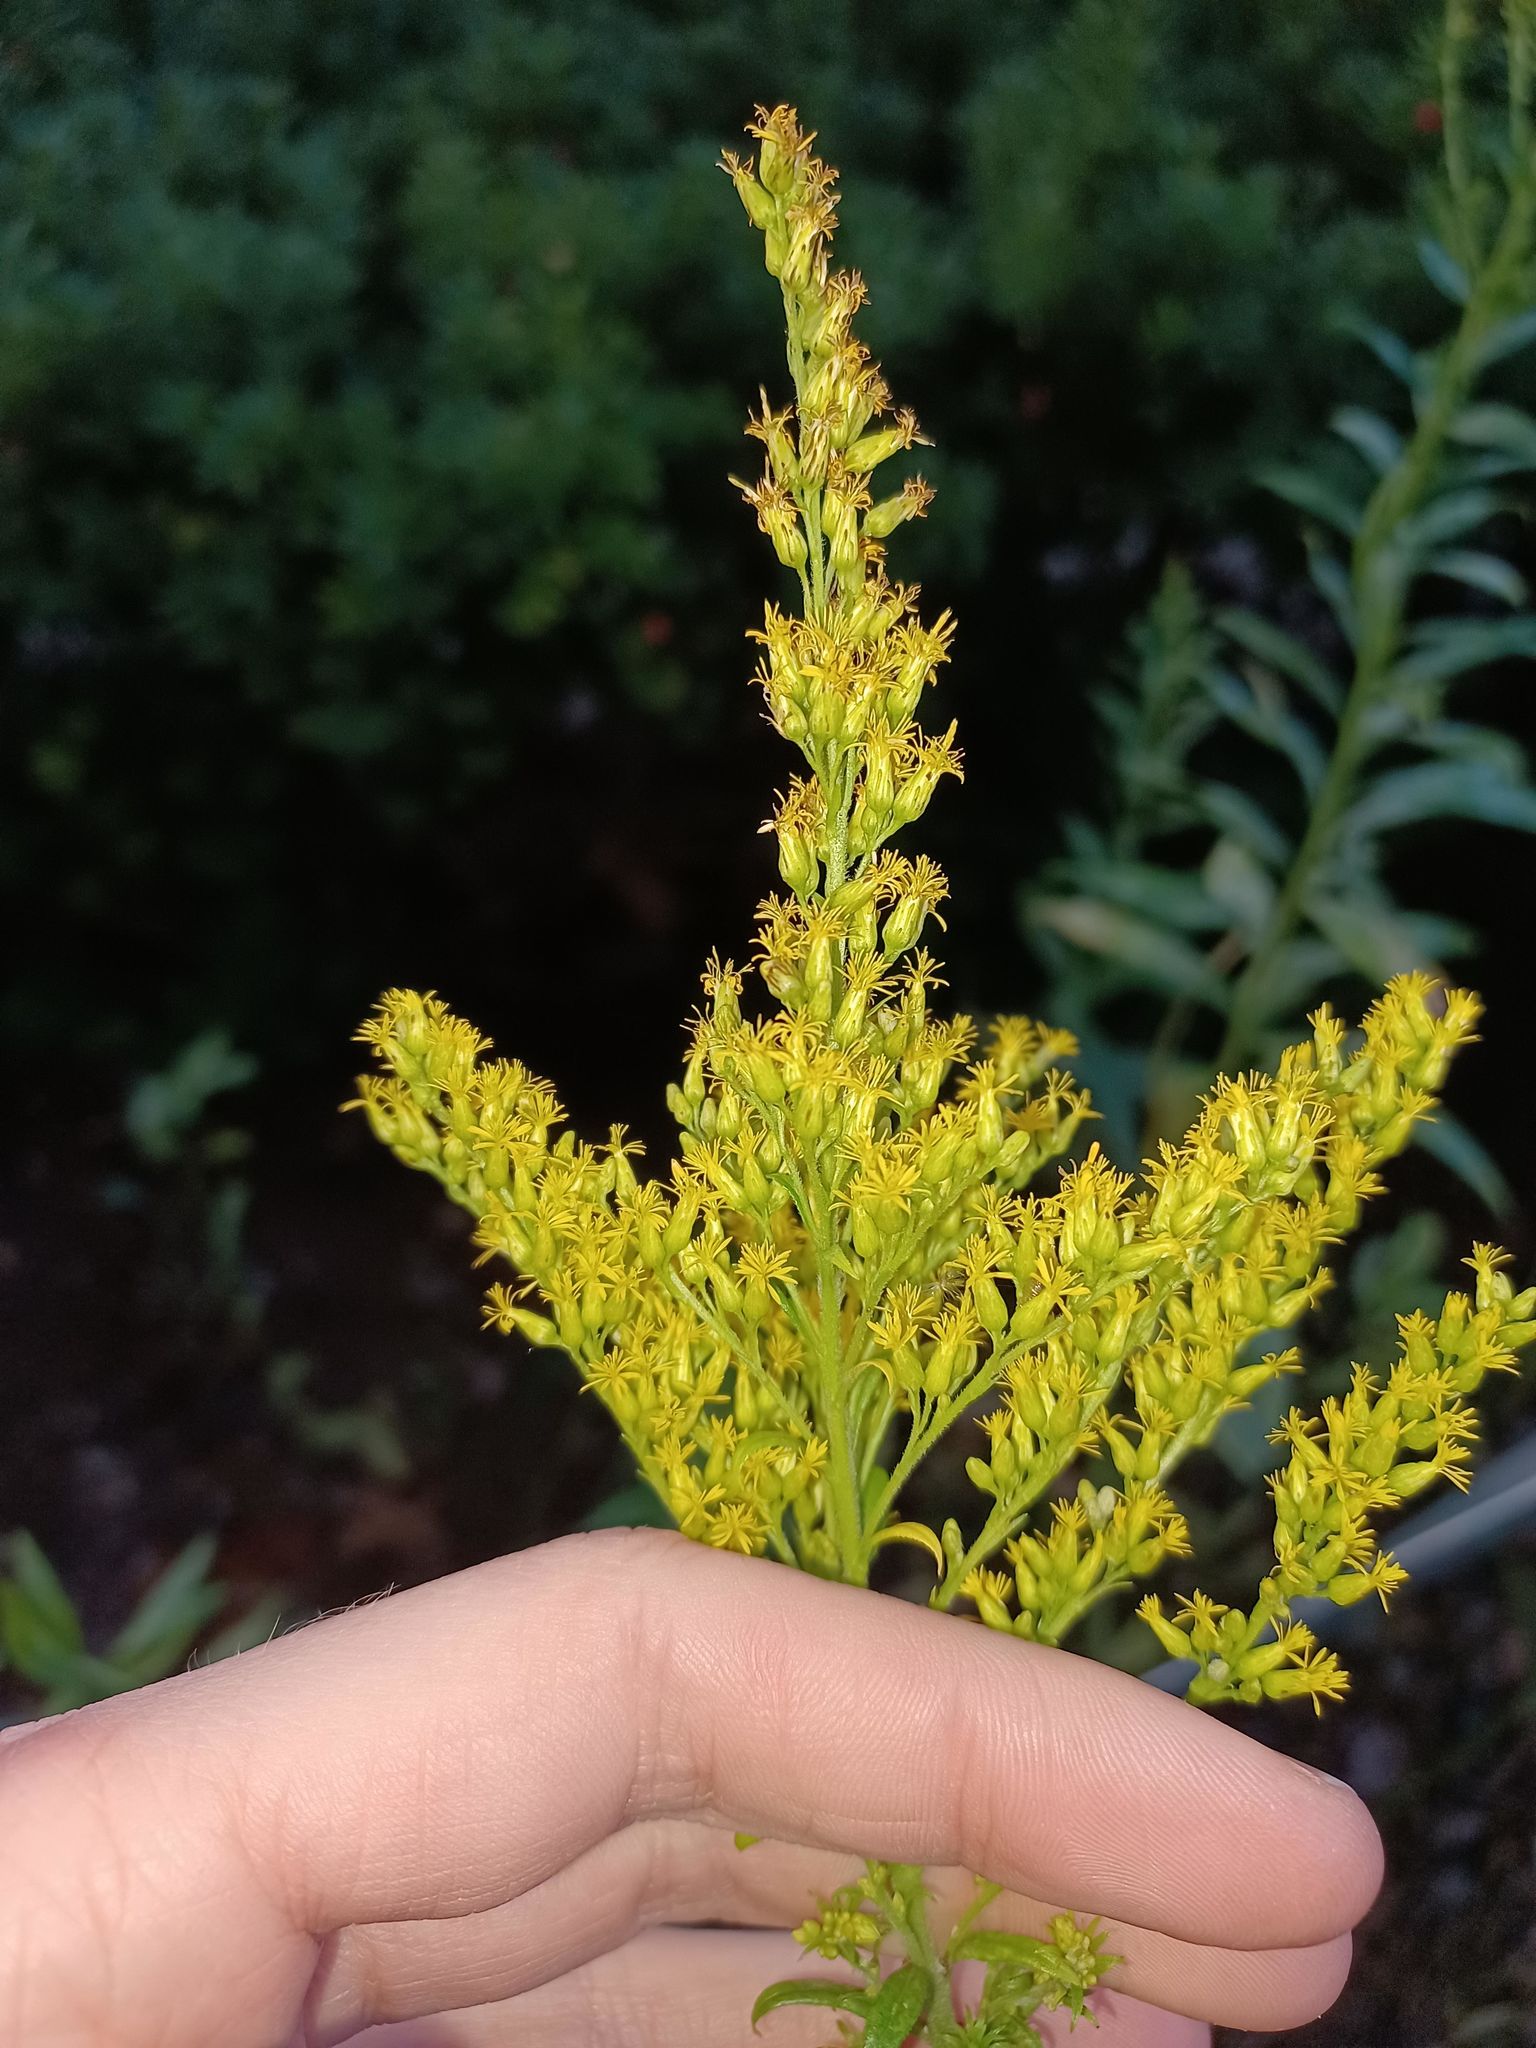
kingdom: Plantae
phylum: Tracheophyta
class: Magnoliopsida
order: Asterales
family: Asteraceae
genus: Solidago
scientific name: Solidago altissima
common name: Late goldenrod
